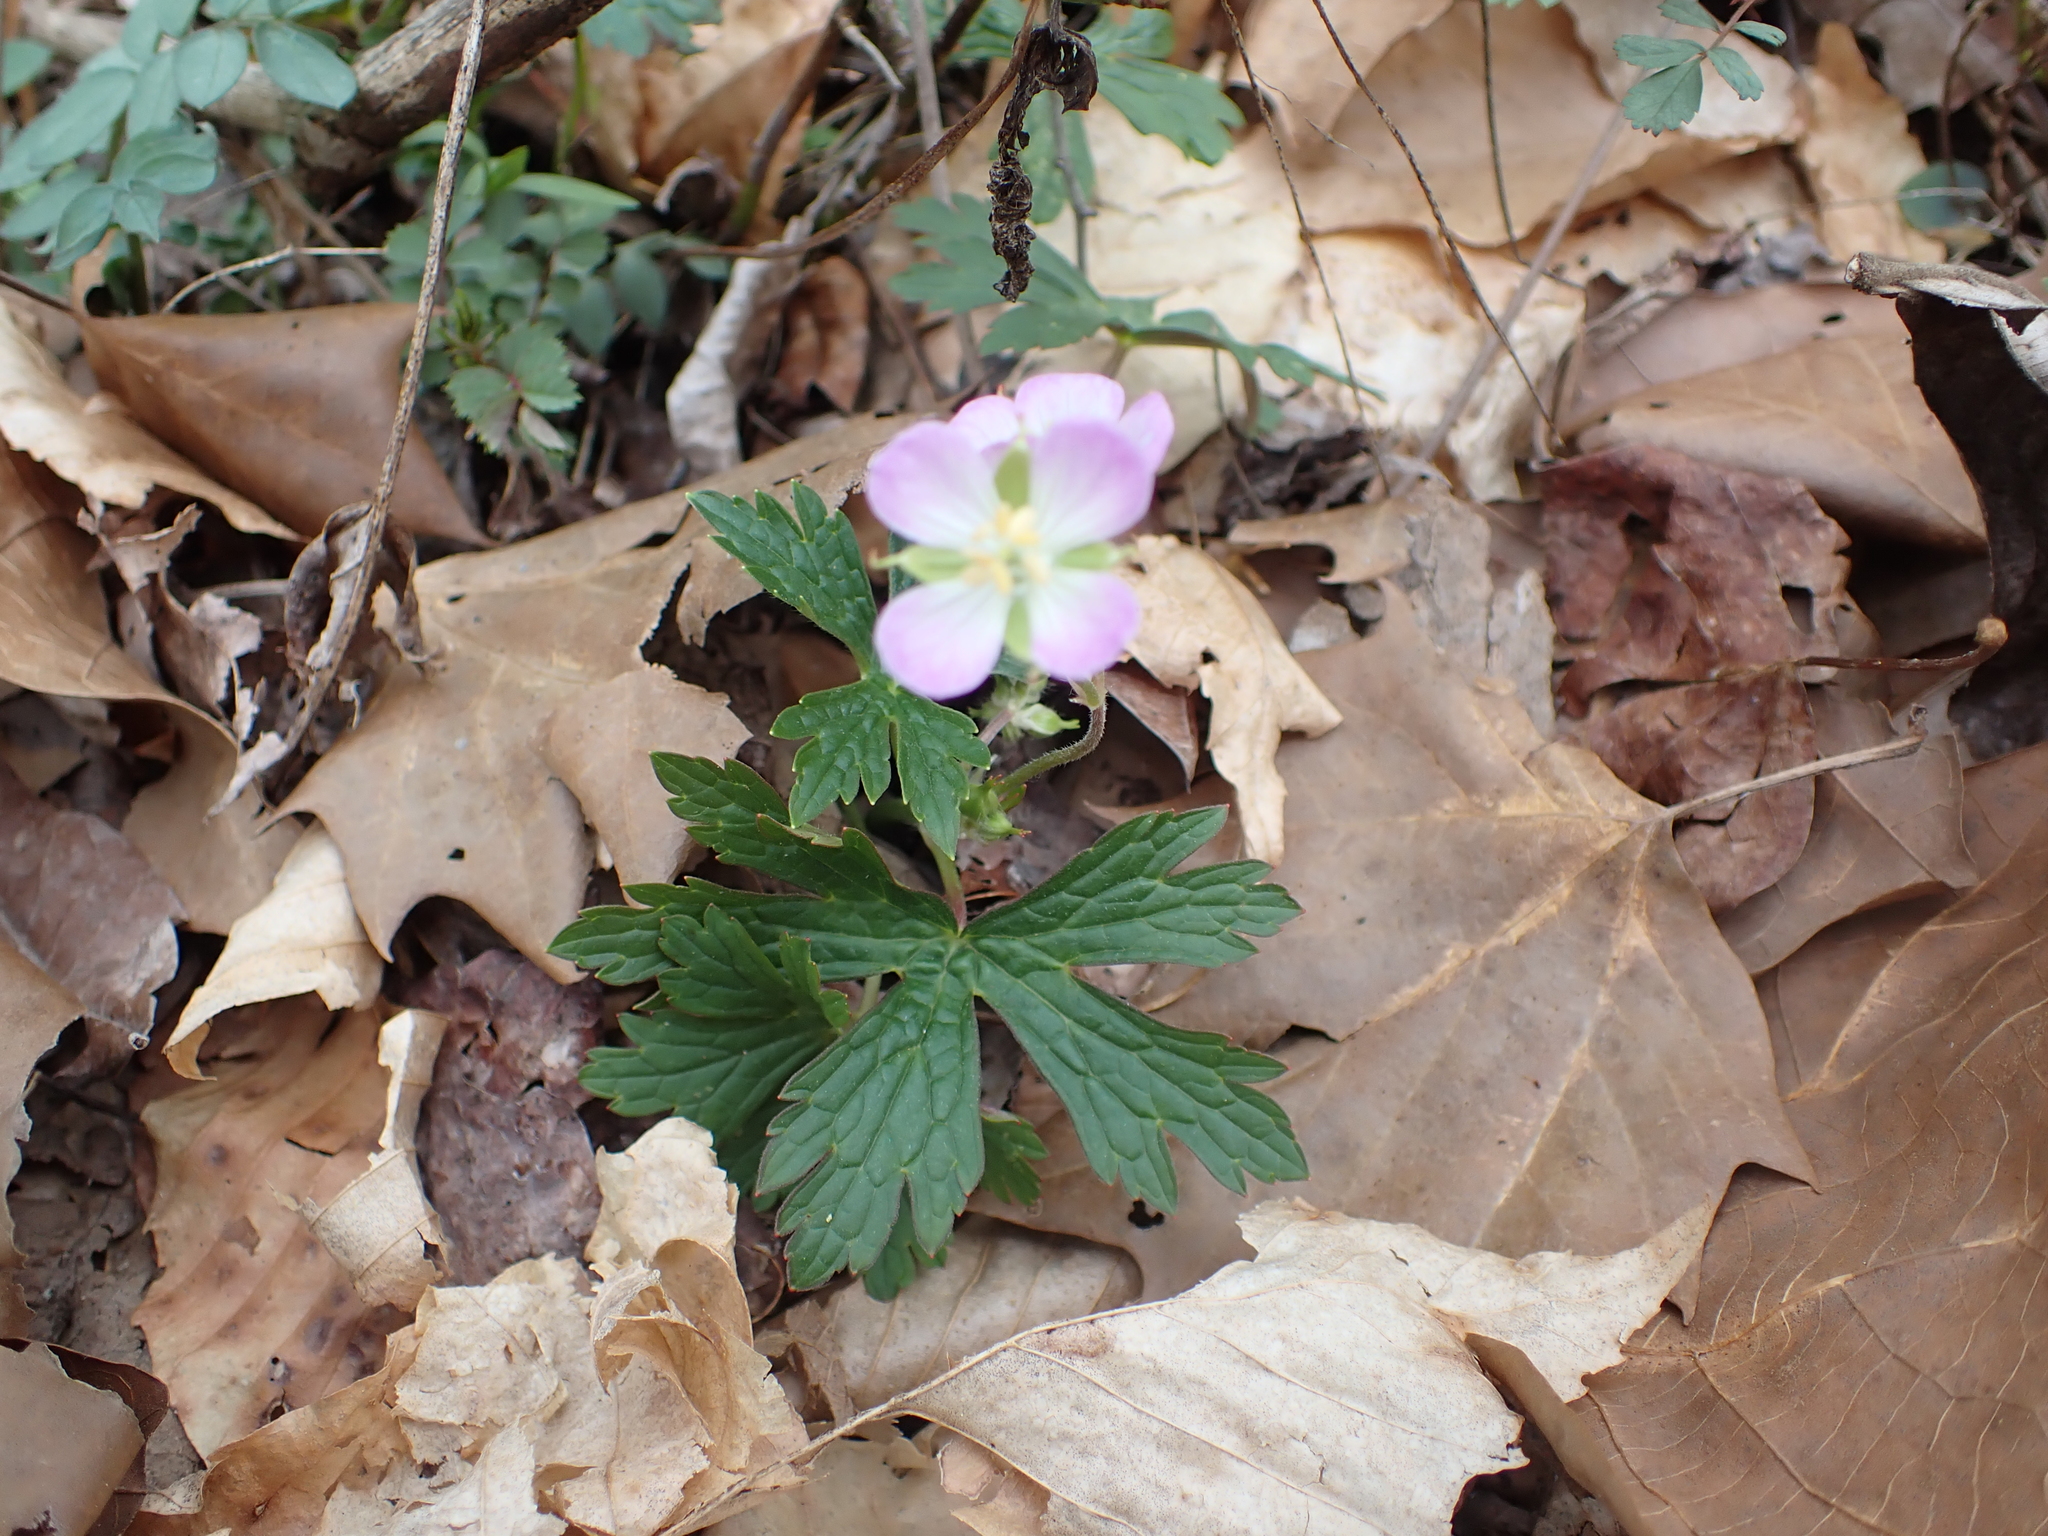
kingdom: Plantae
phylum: Tracheophyta
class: Magnoliopsida
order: Geraniales
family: Geraniaceae
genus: Geranium
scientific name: Geranium maculatum
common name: Spotted geranium
